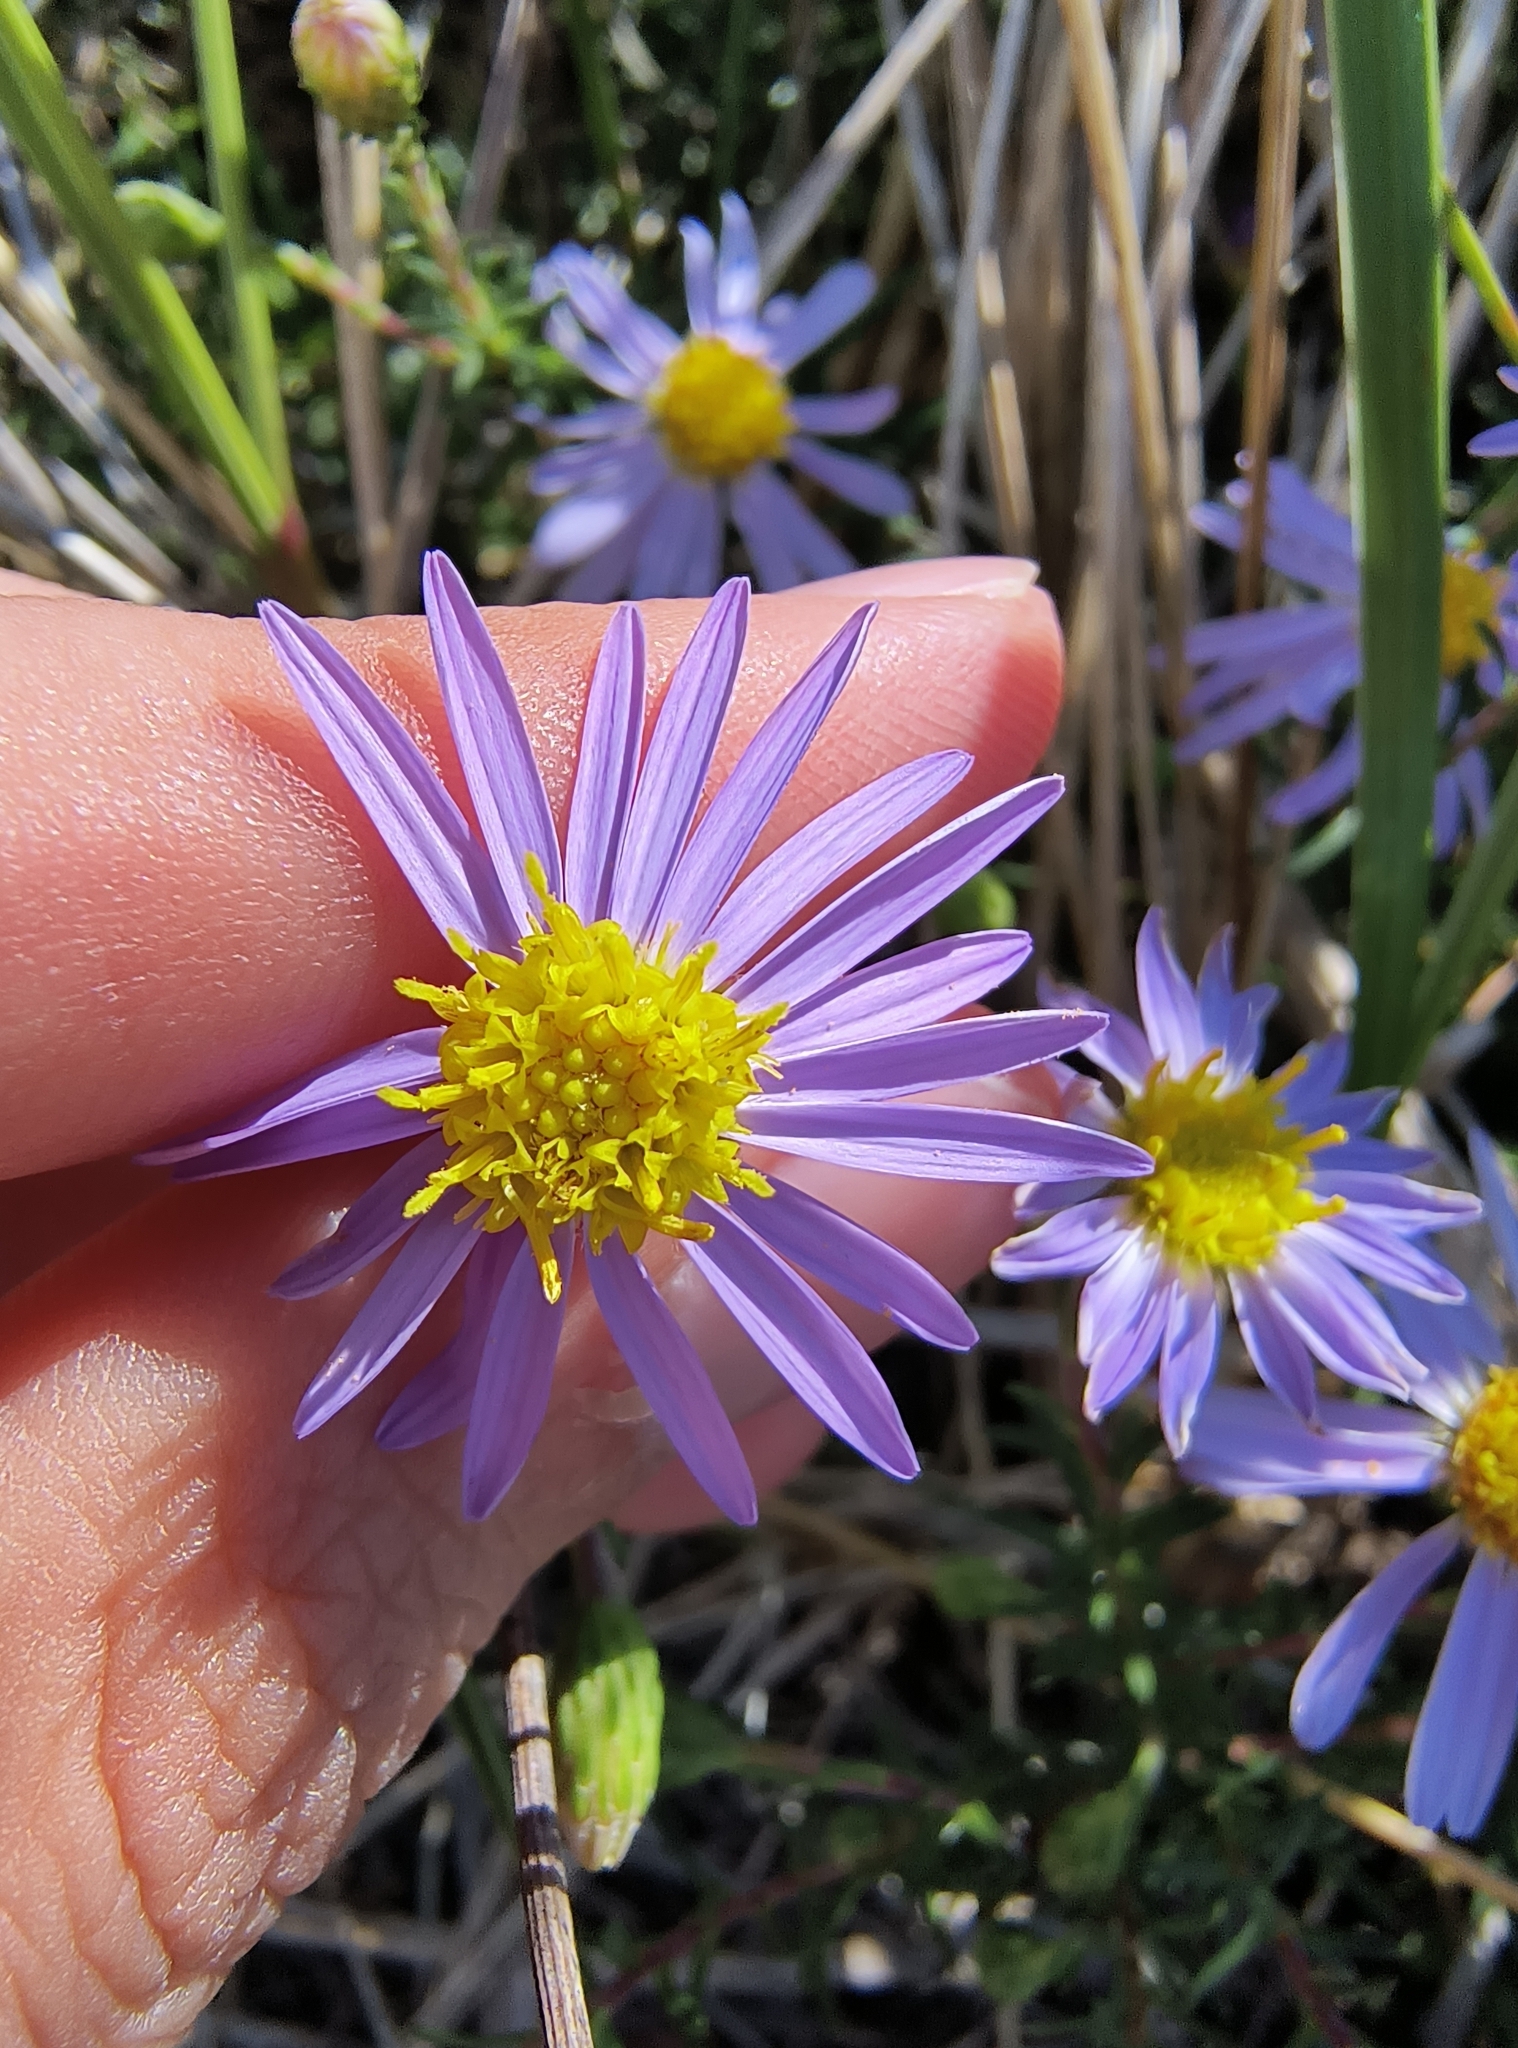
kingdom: Plantae
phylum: Tracheophyta
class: Magnoliopsida
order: Asterales
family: Asteraceae
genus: Ionactis
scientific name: Ionactis linariifolia
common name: Flax-leaf aster
